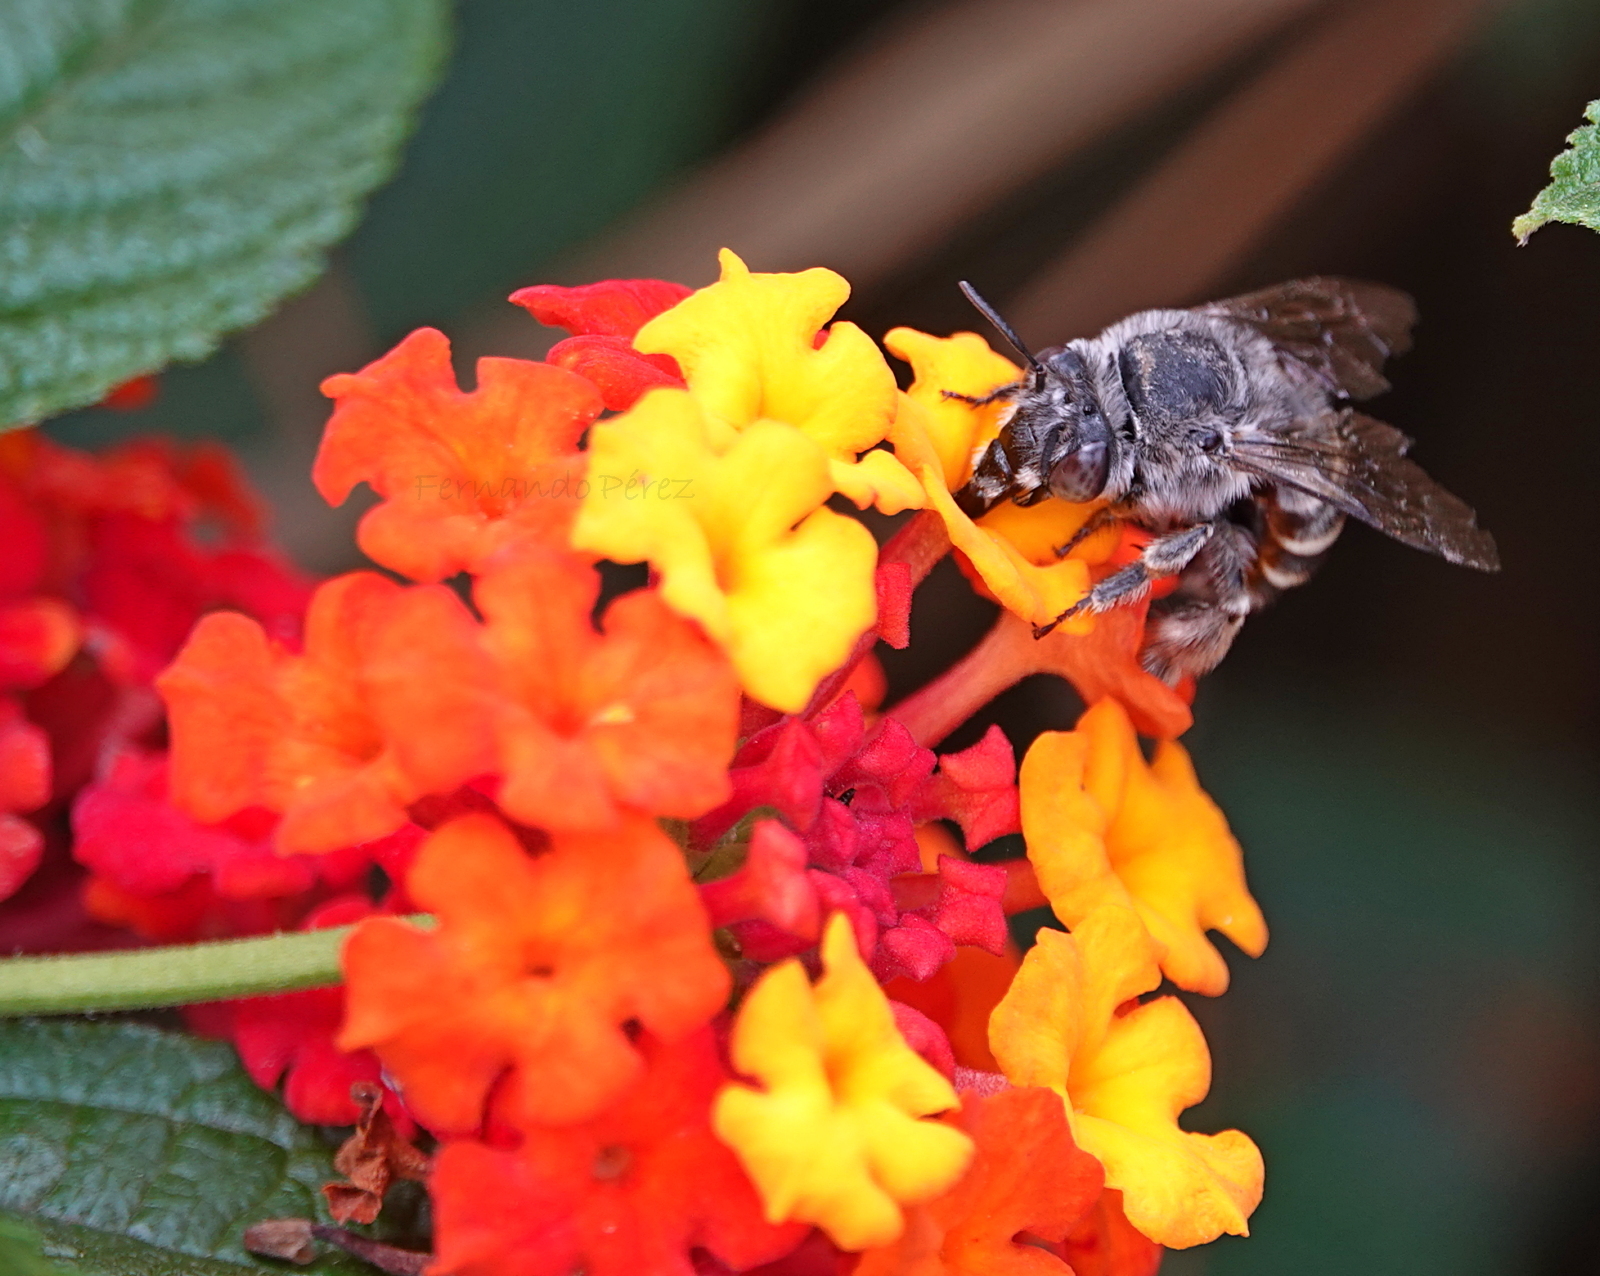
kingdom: Animalia
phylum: Arthropoda
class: Insecta
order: Hymenoptera
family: Apidae
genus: Anthophora
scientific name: Anthophora marginata
